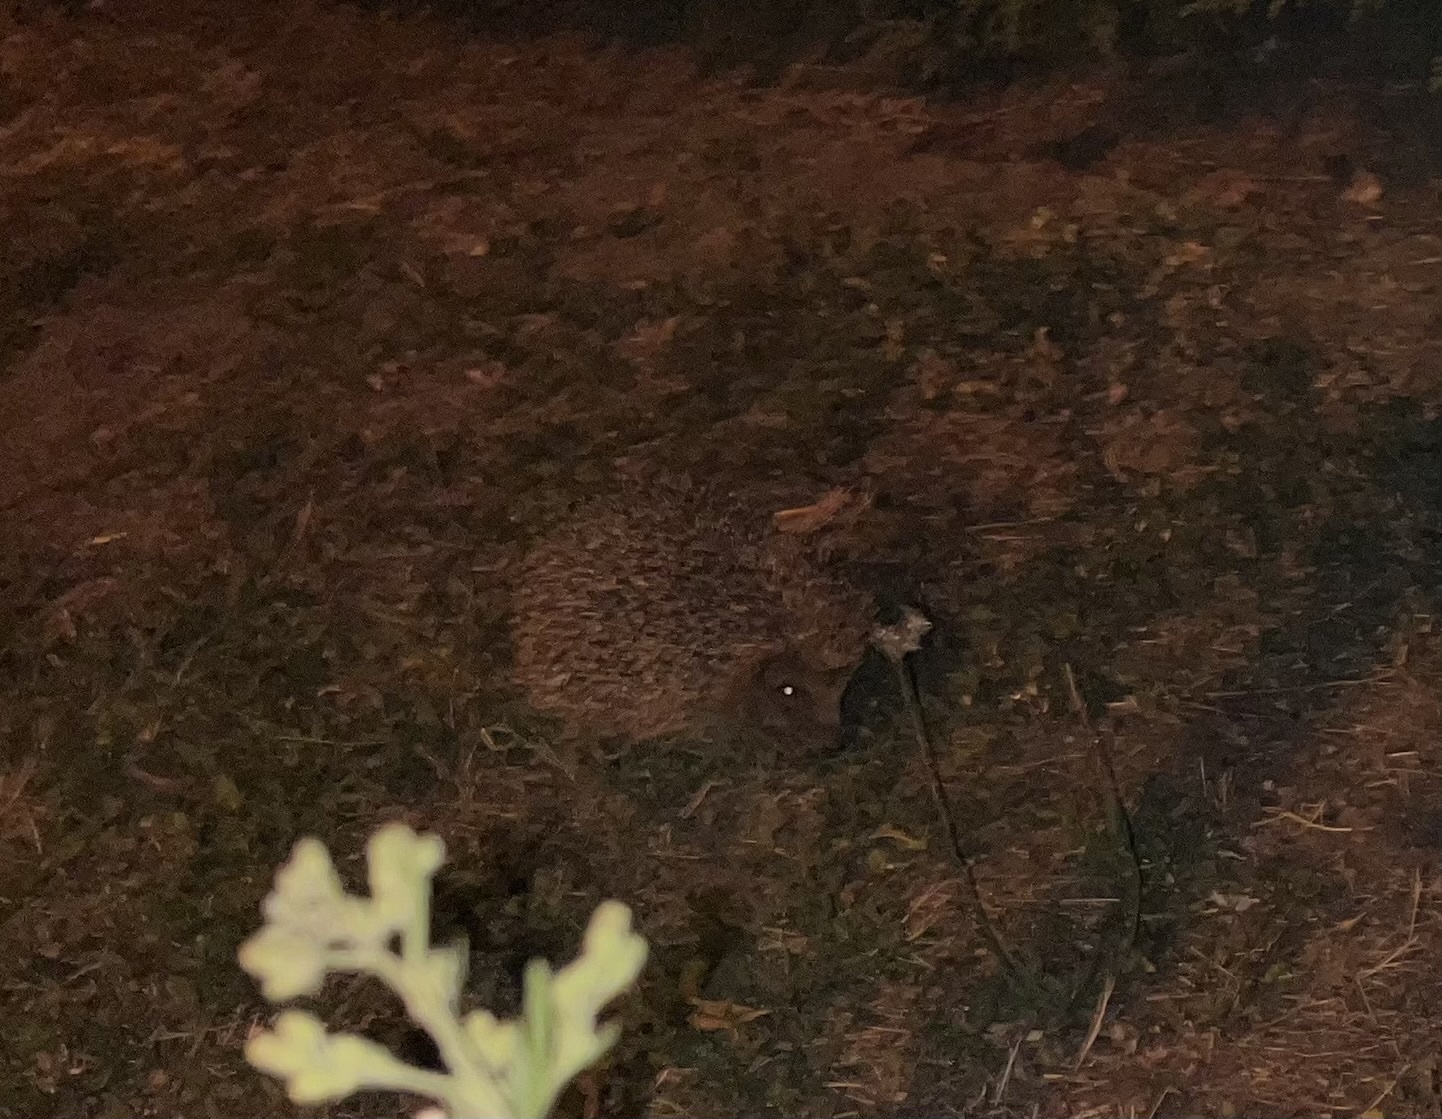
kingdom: Animalia
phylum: Chordata
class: Mammalia
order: Erinaceomorpha
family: Erinaceidae
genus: Erinaceus
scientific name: Erinaceus europaeus
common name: West european hedgehog
